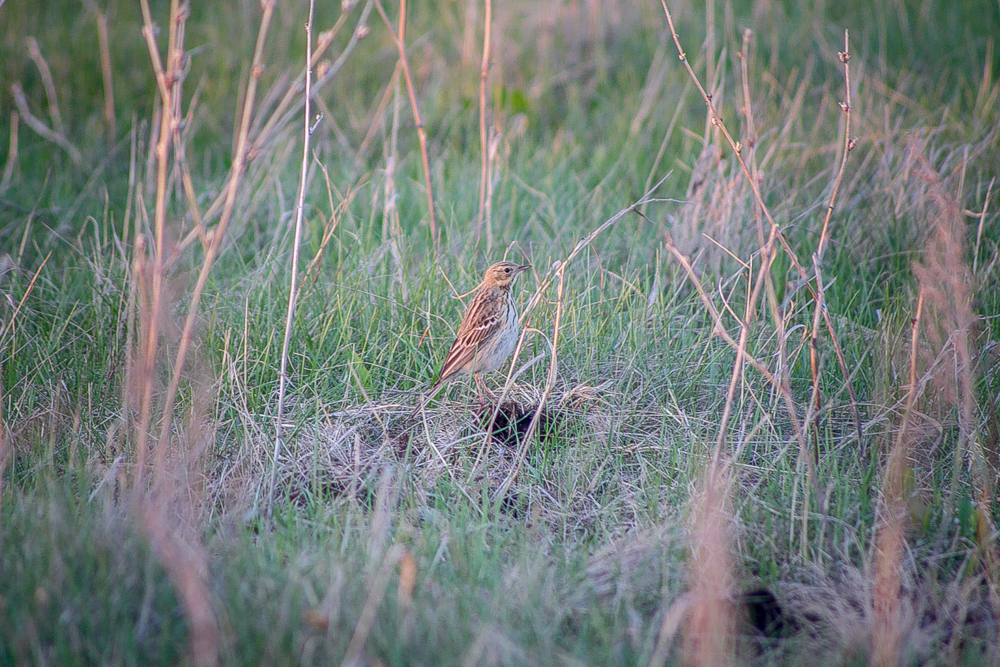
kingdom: Animalia
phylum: Chordata
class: Aves
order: Passeriformes
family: Motacillidae
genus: Anthus
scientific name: Anthus trivialis
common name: Tree pipit
